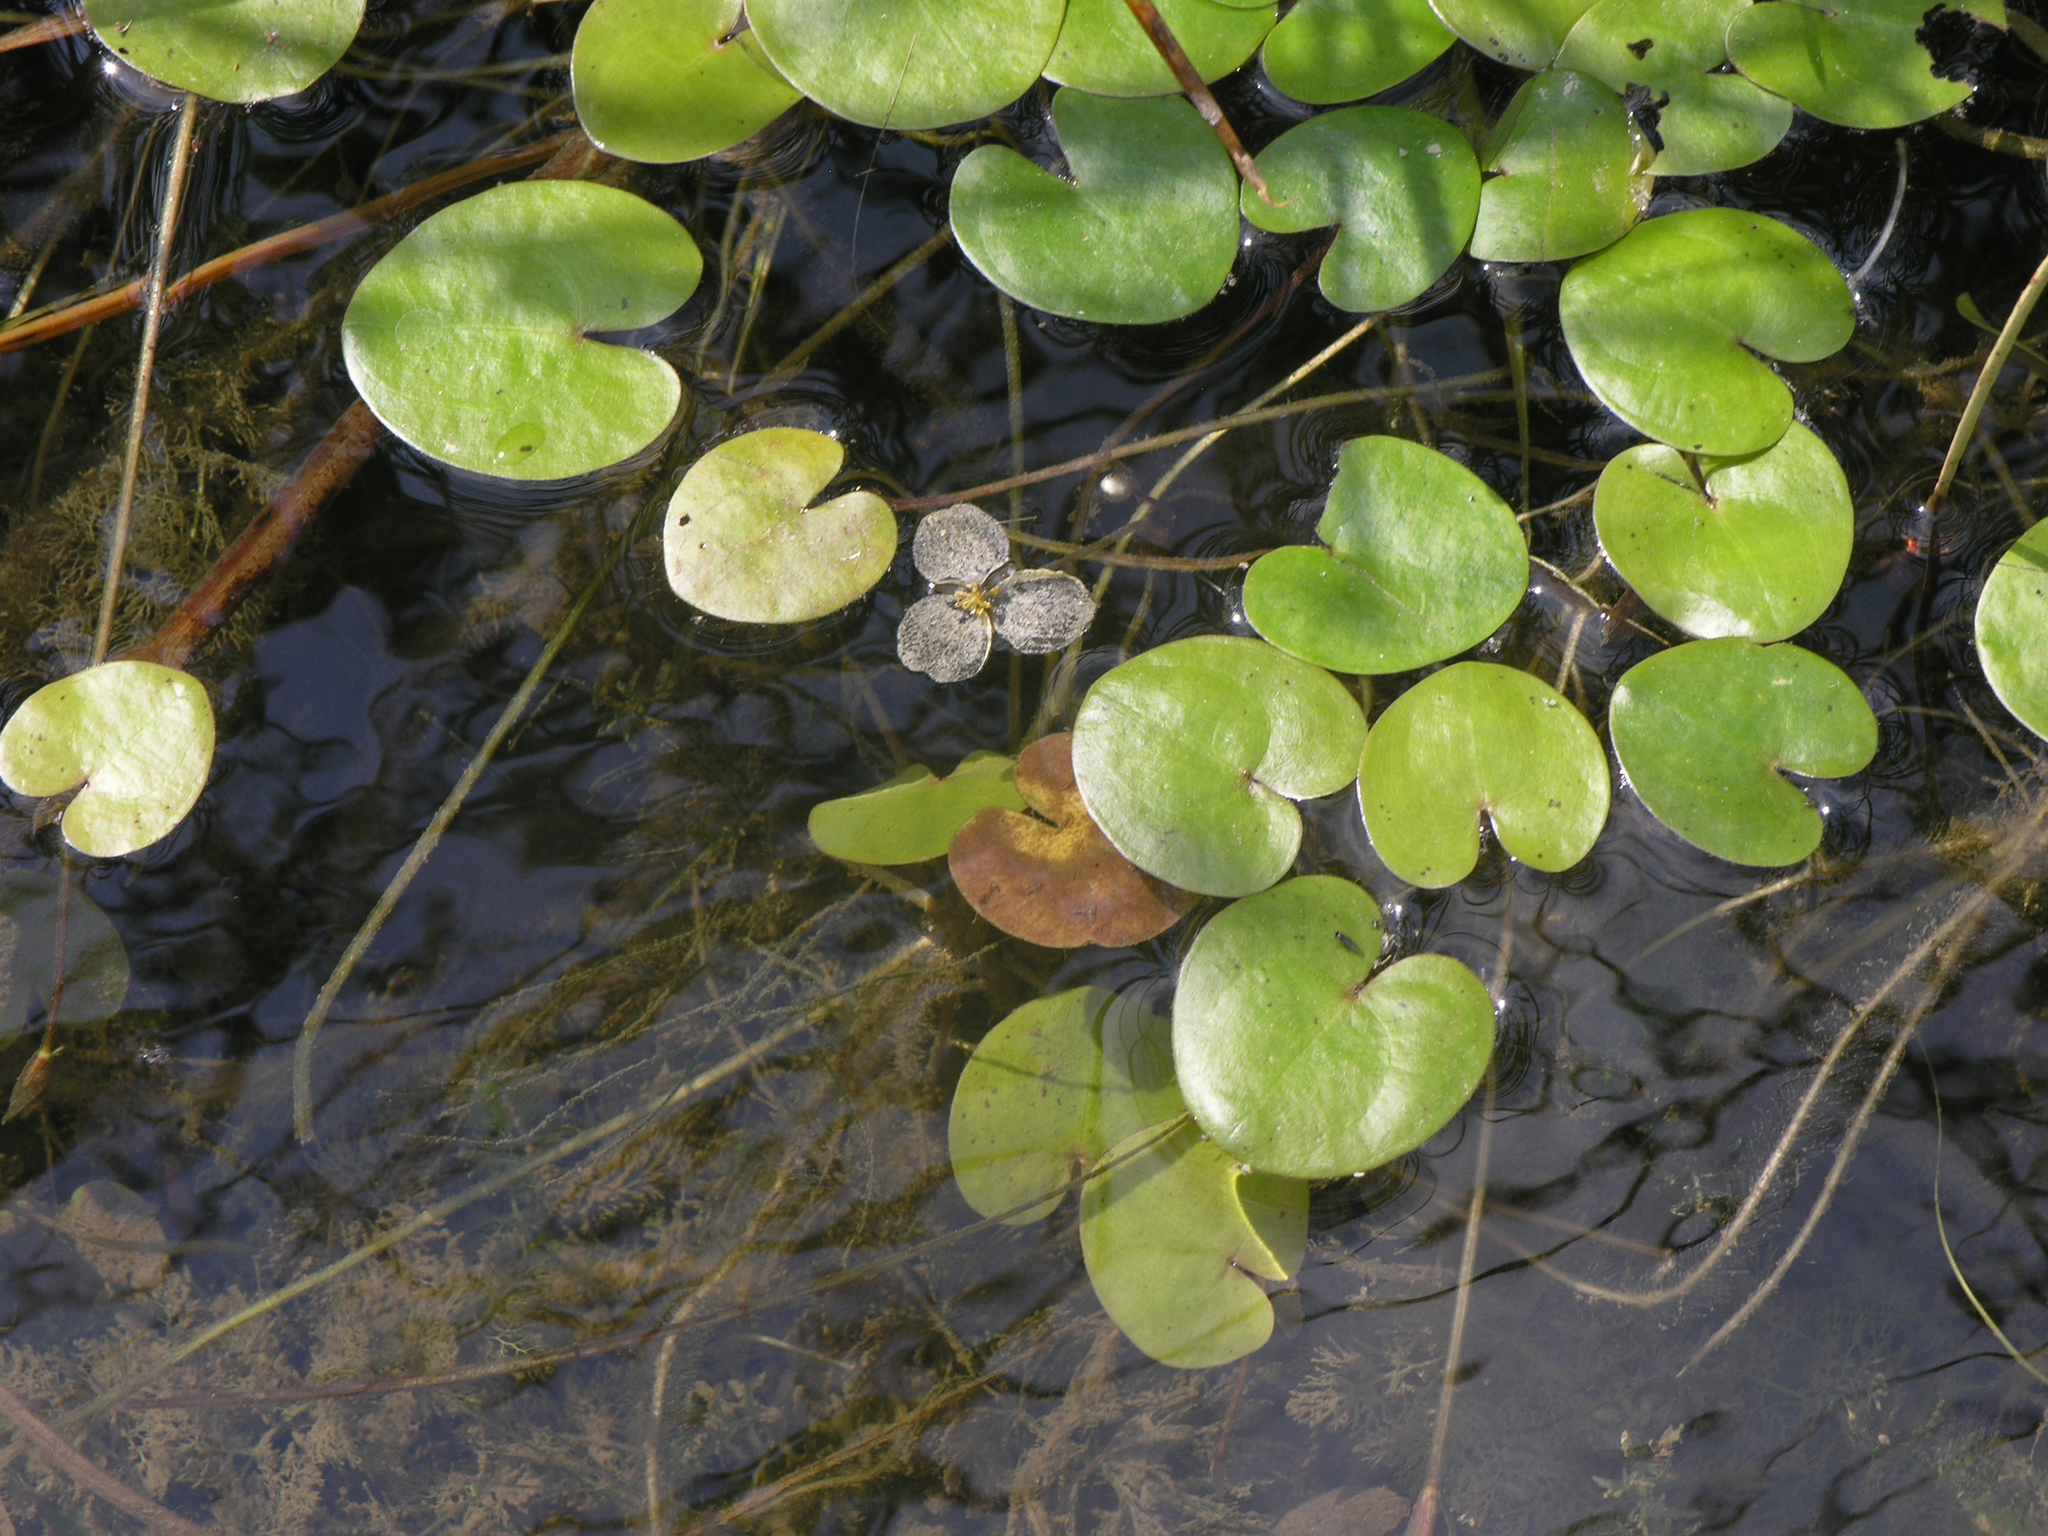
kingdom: Plantae
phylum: Tracheophyta
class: Liliopsida
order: Alismatales
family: Hydrocharitaceae
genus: Hydrocharis
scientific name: Hydrocharis morsus-ranae
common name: Frogbit
